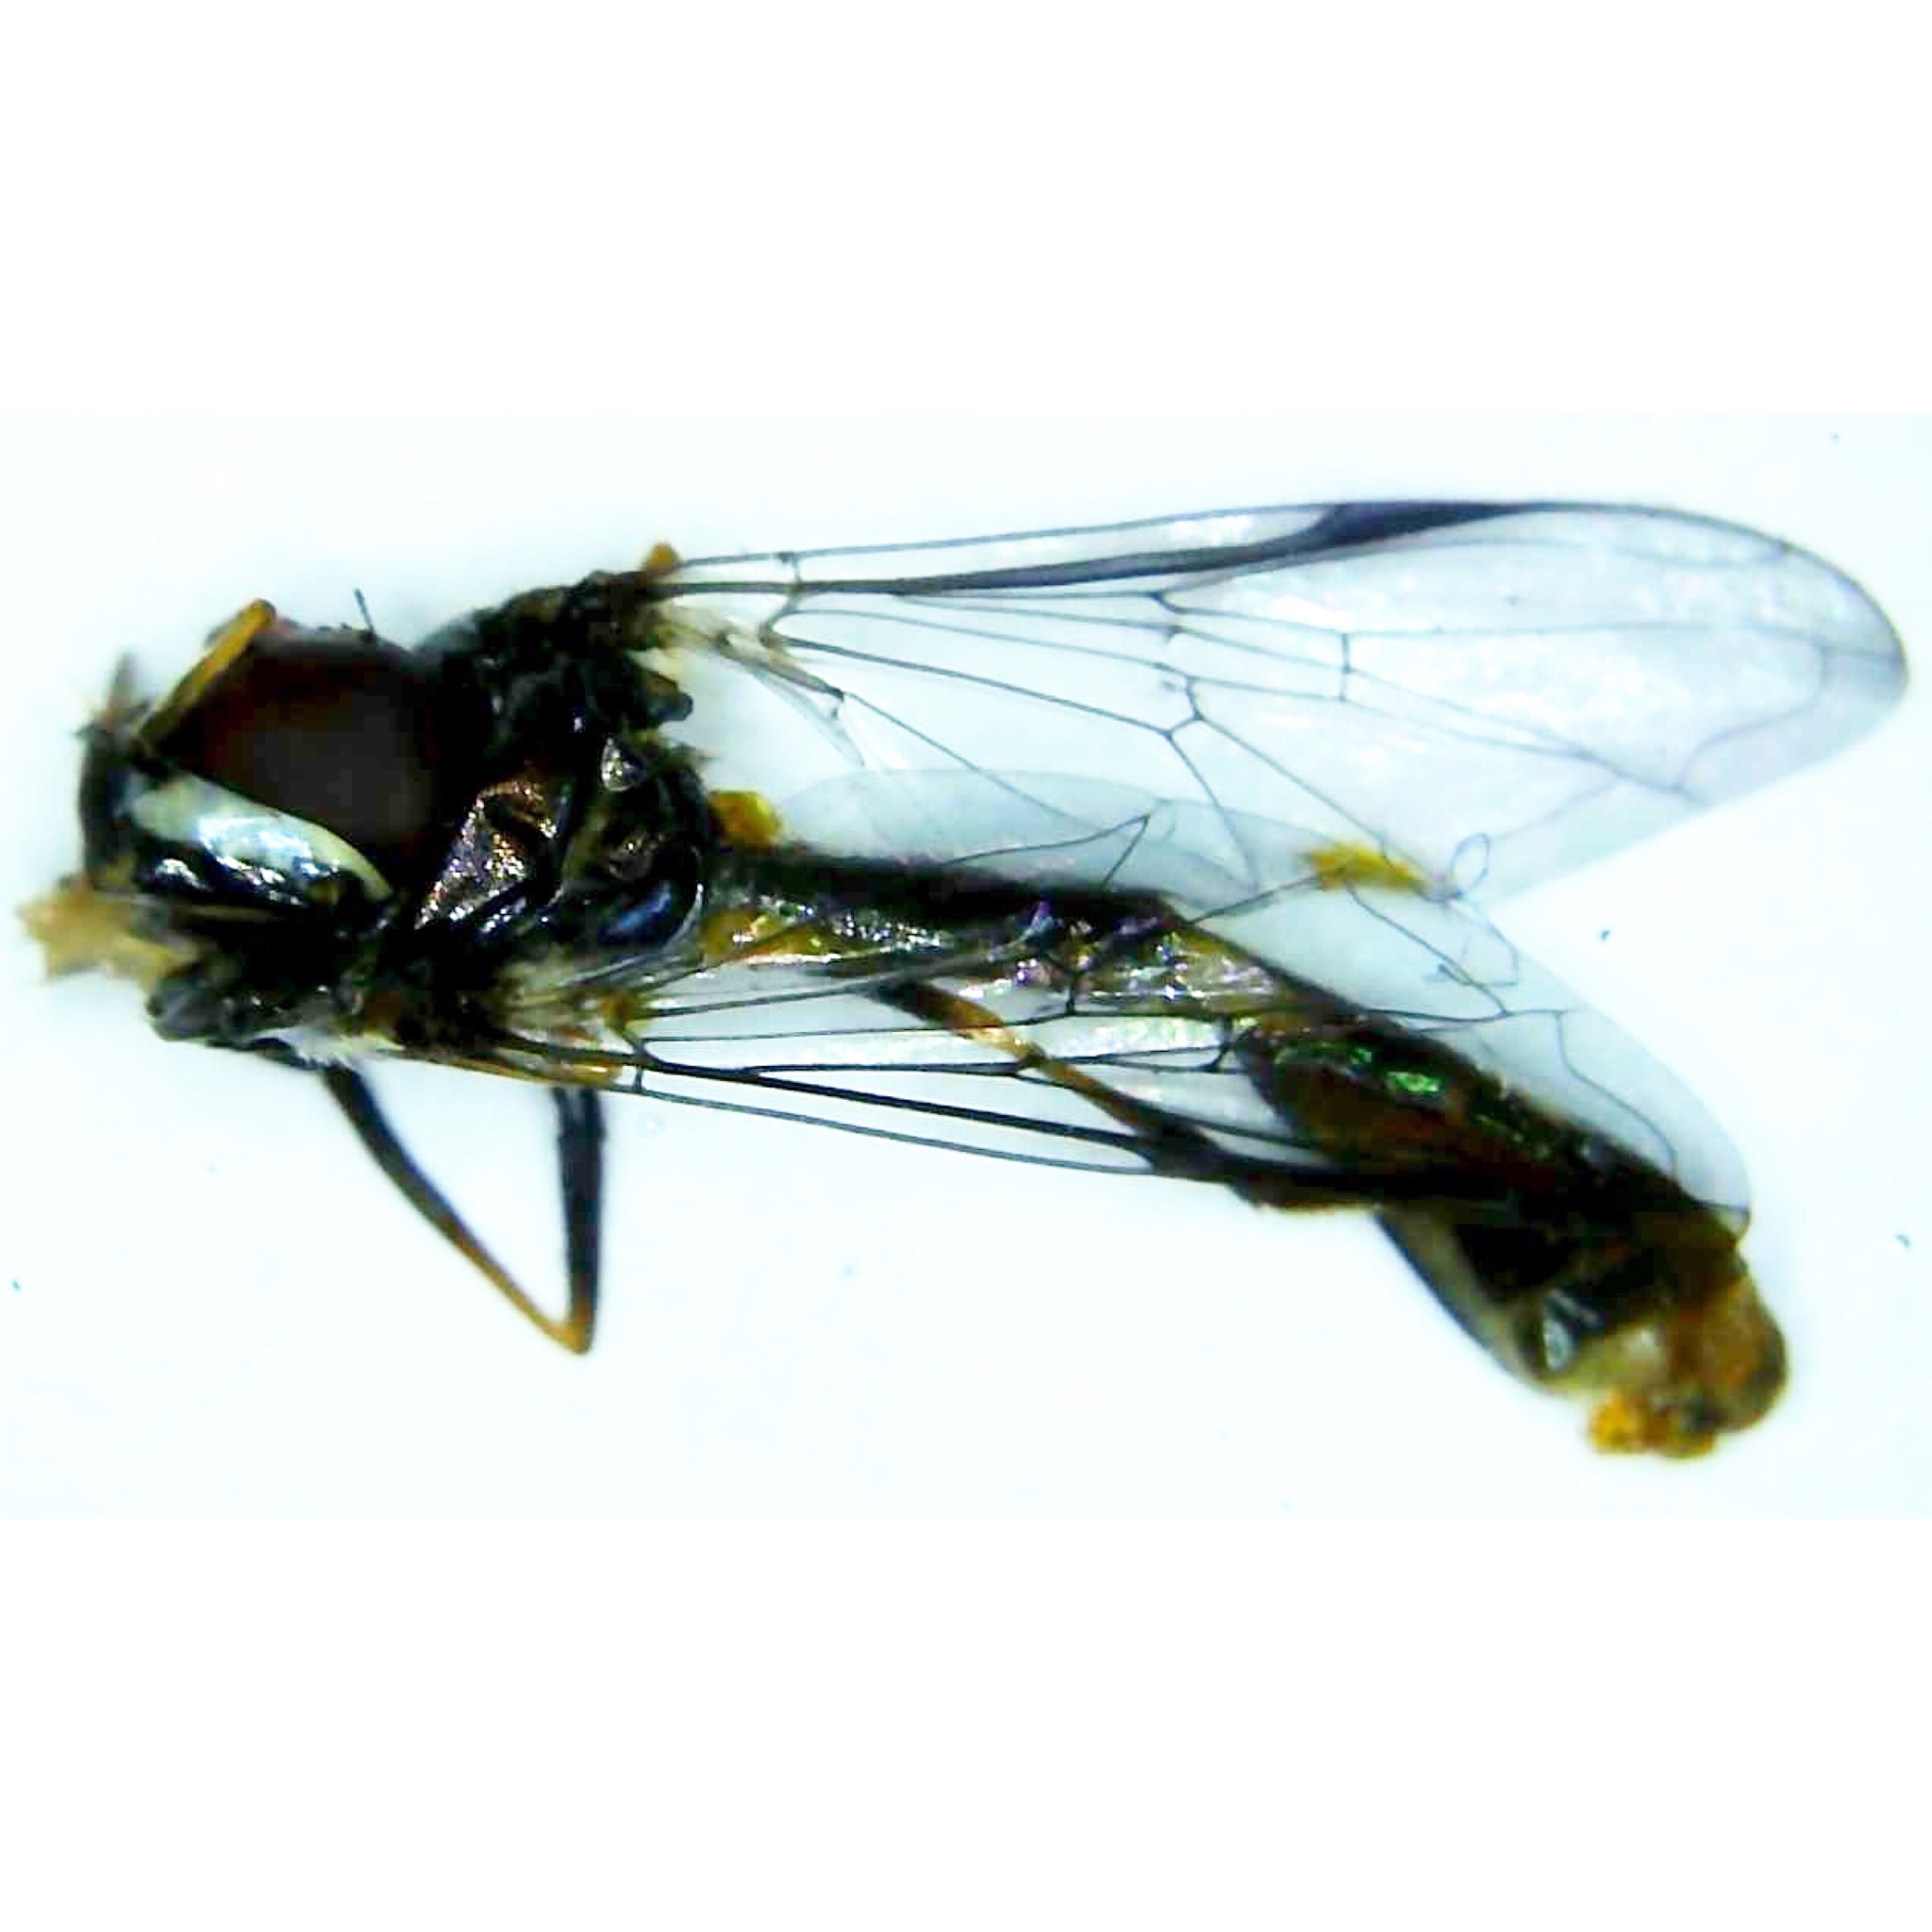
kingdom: Animalia
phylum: Arthropoda
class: Insecta
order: Diptera
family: Syrphidae
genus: Dioprosopa
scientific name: Dioprosopa clavatus
